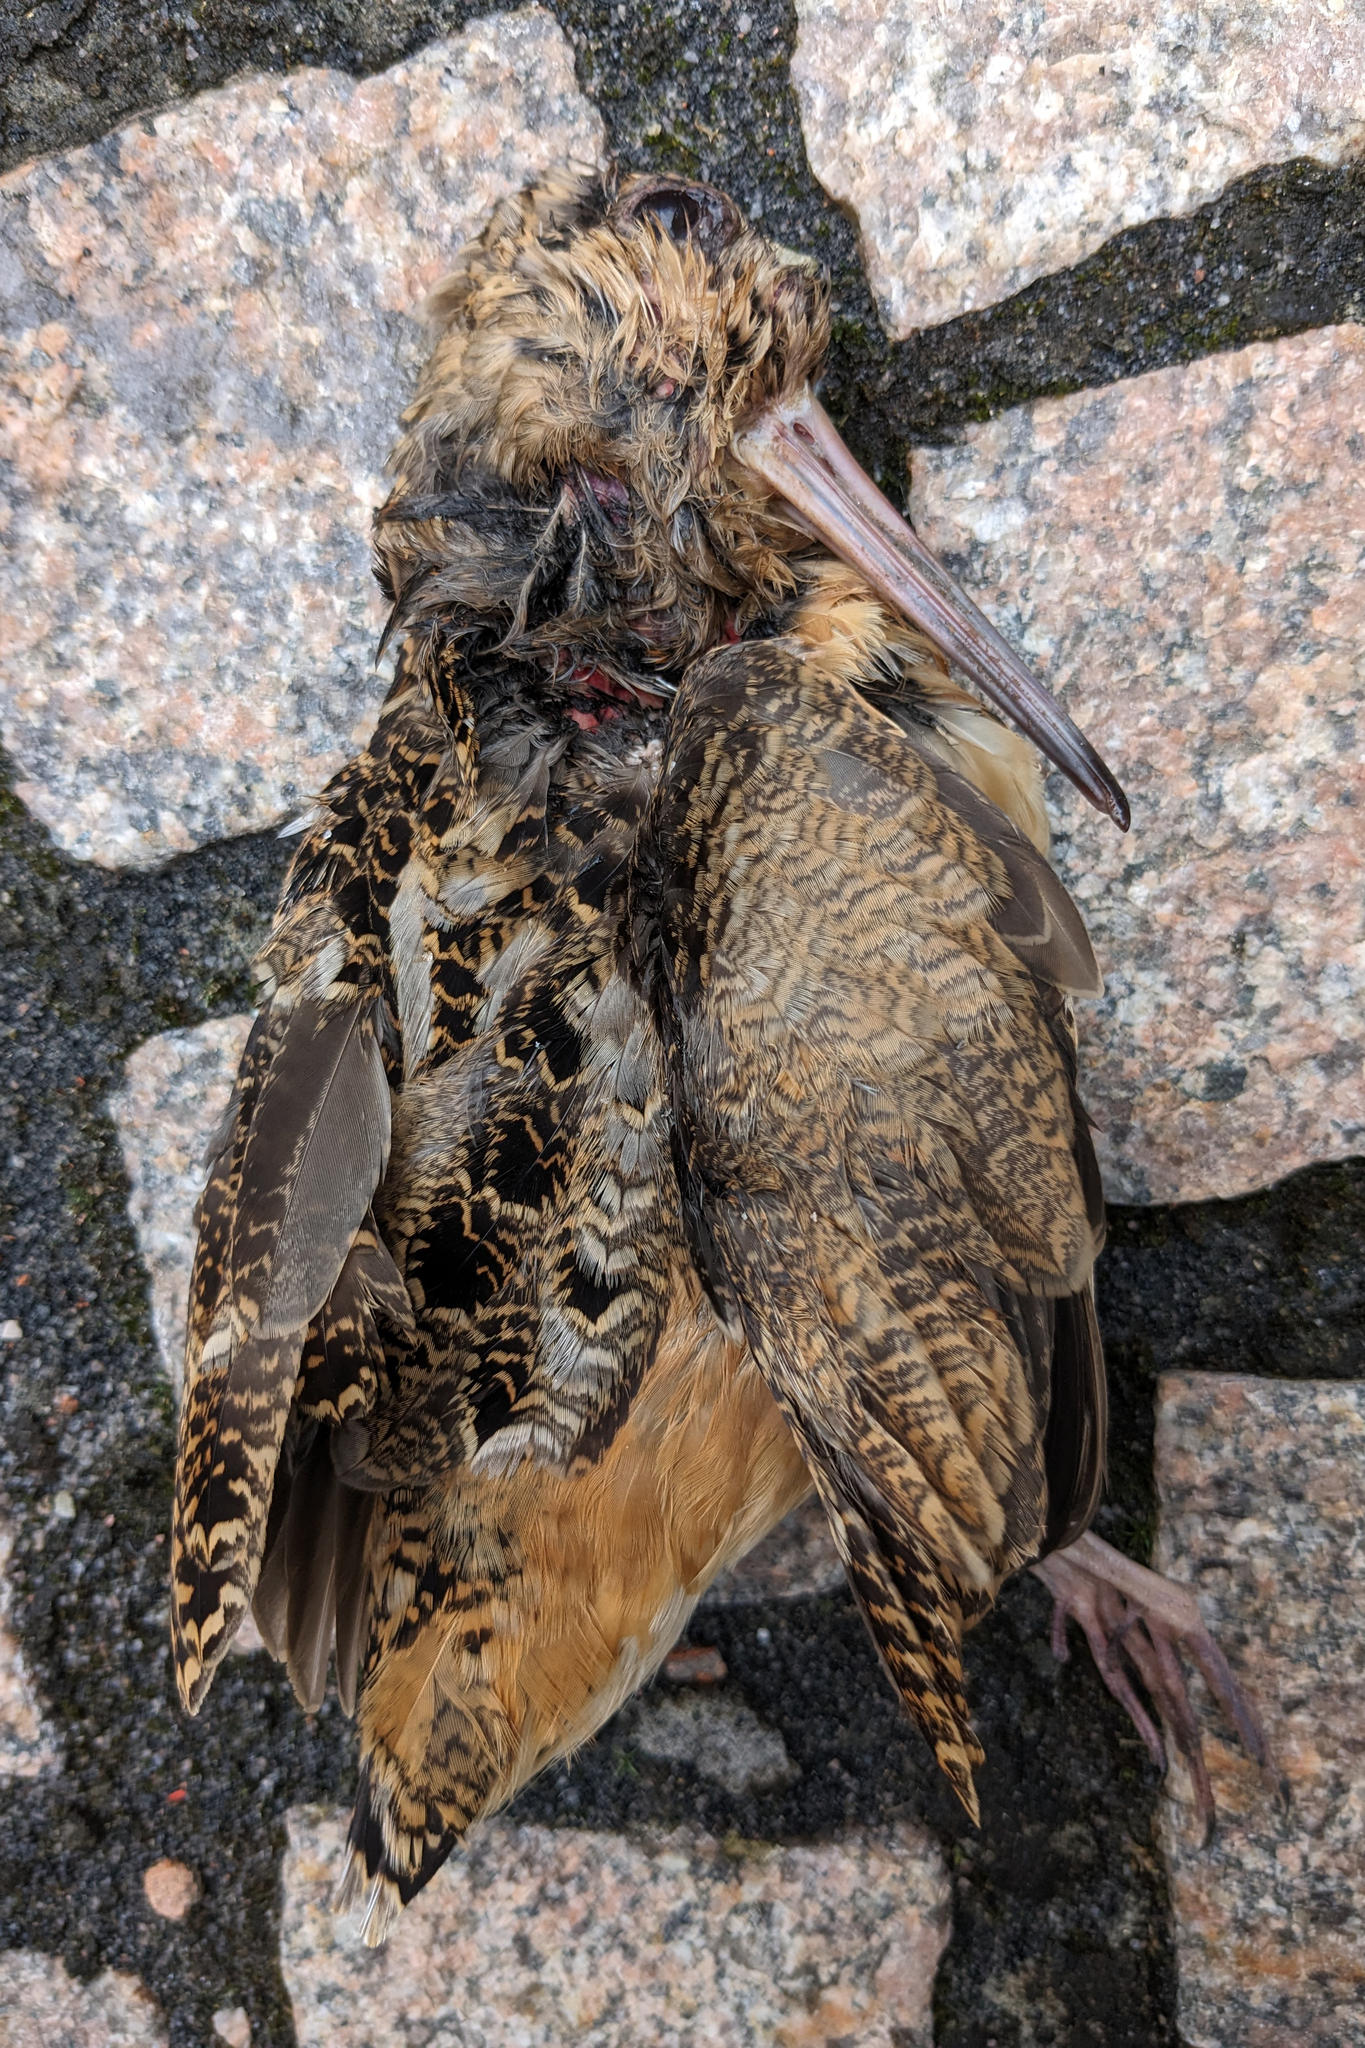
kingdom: Animalia
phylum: Chordata
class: Aves
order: Charadriiformes
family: Scolopacidae
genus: Scolopax
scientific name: Scolopax minor
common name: American woodcock
